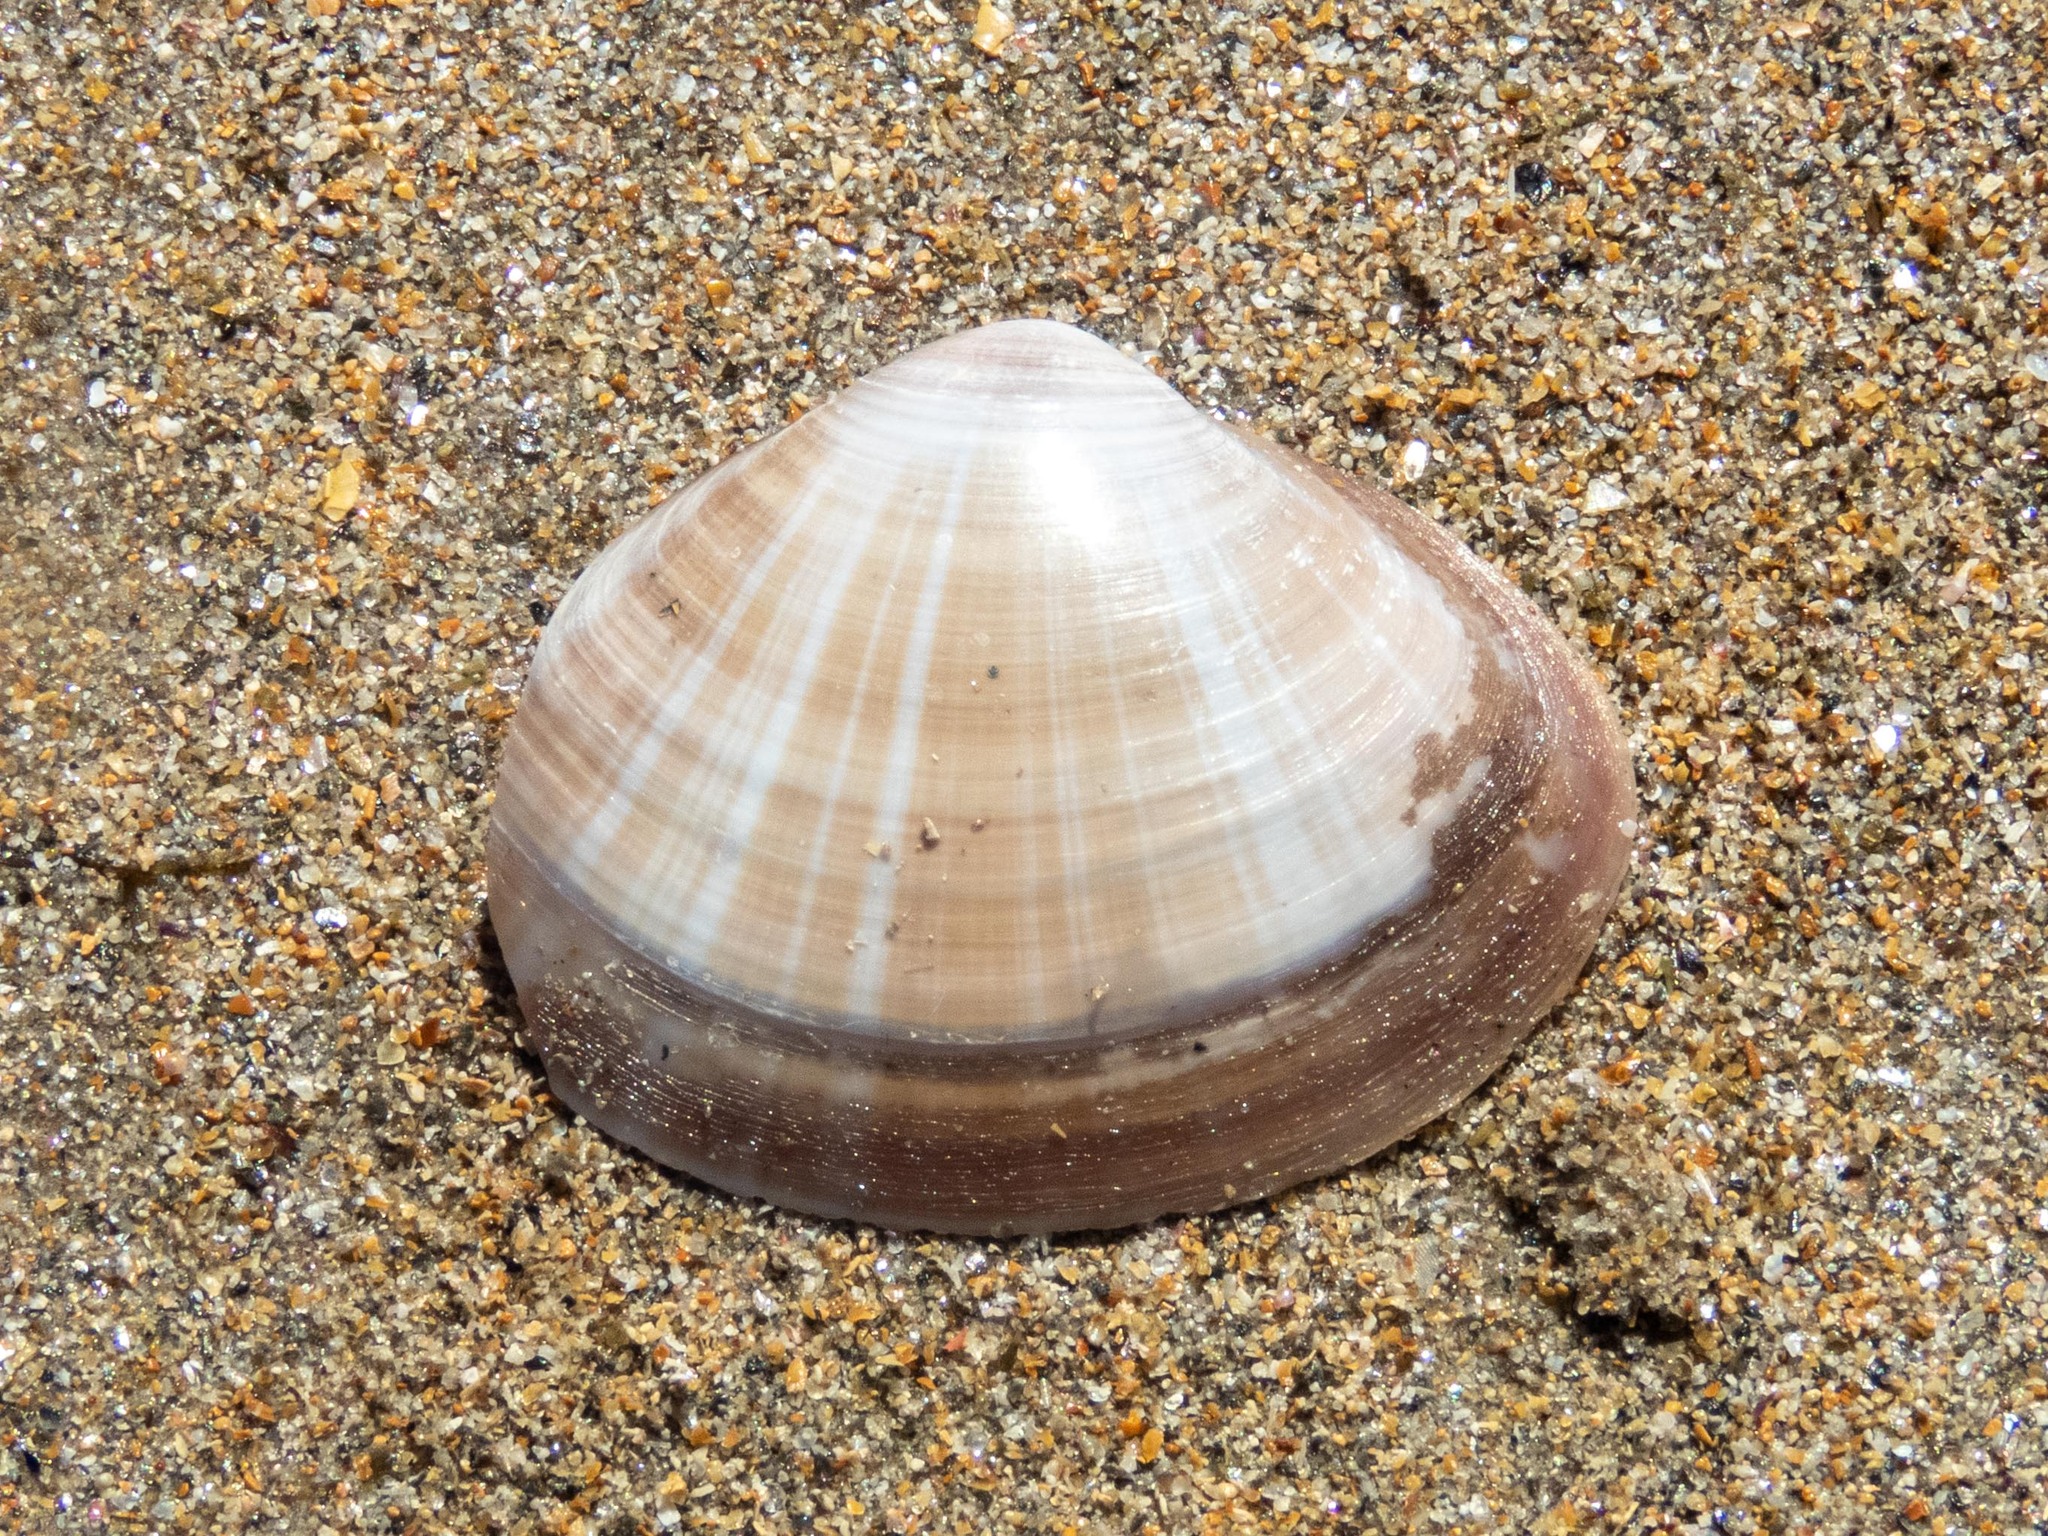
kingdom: Animalia
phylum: Mollusca
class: Bivalvia
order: Venerida
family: Mactridae
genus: Mactra
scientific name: Mactra stultorum
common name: Rayed trough shell
